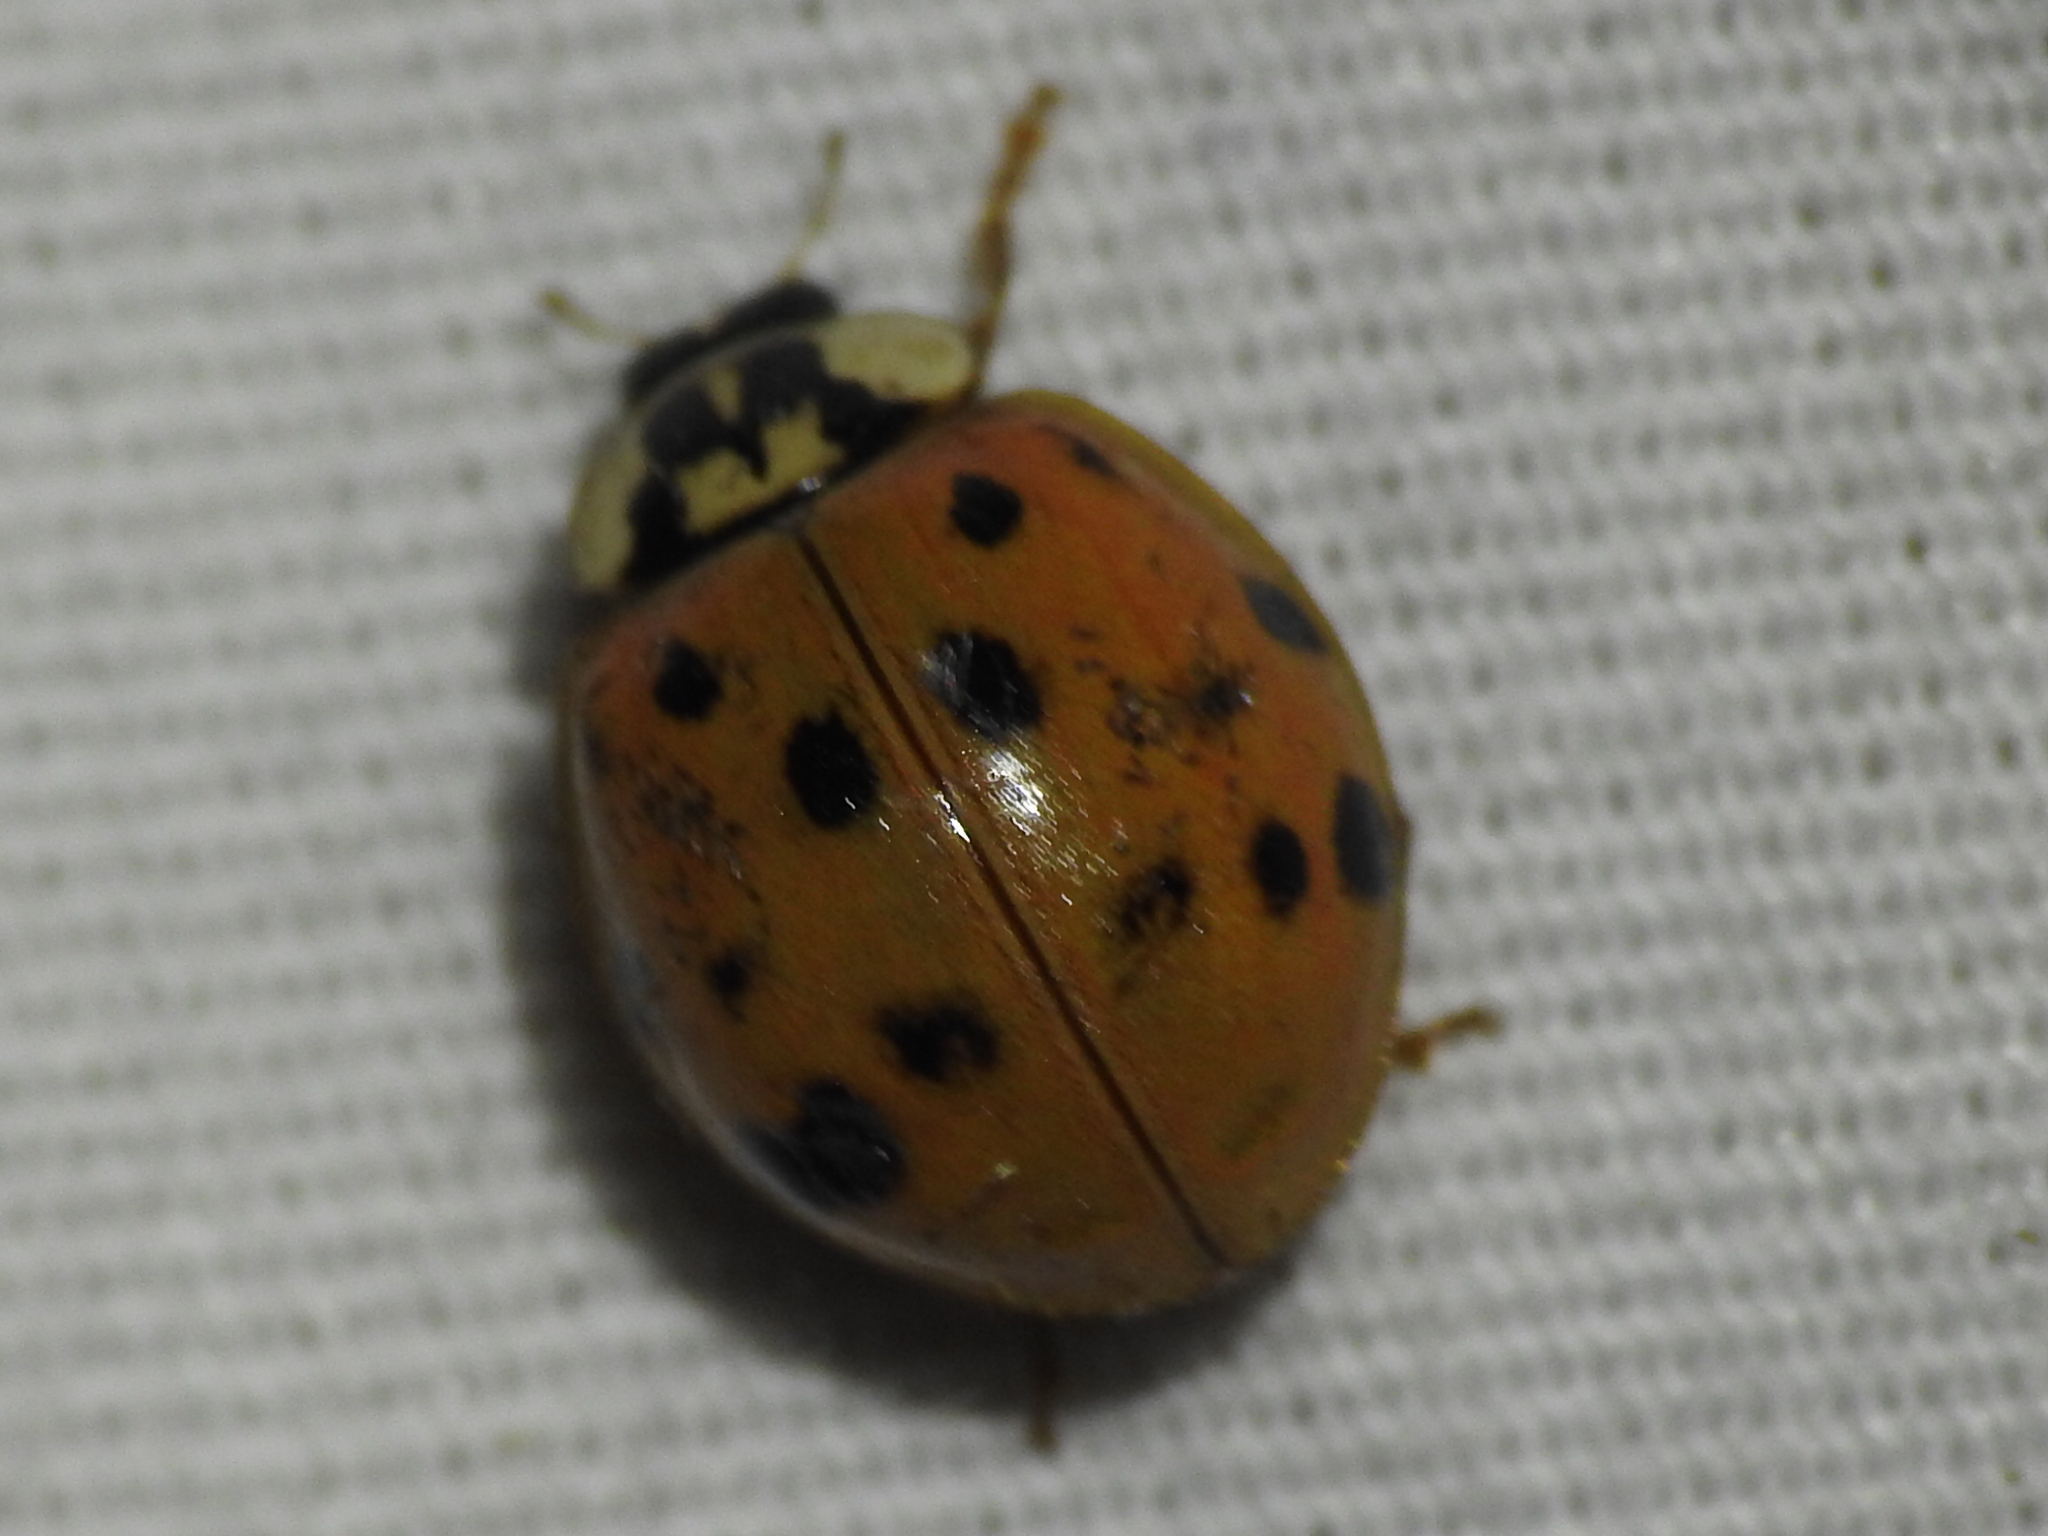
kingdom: Animalia
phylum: Arthropoda
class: Insecta
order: Coleoptera
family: Coccinellidae
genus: Harmonia
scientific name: Harmonia axyridis
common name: Harlequin ladybird
